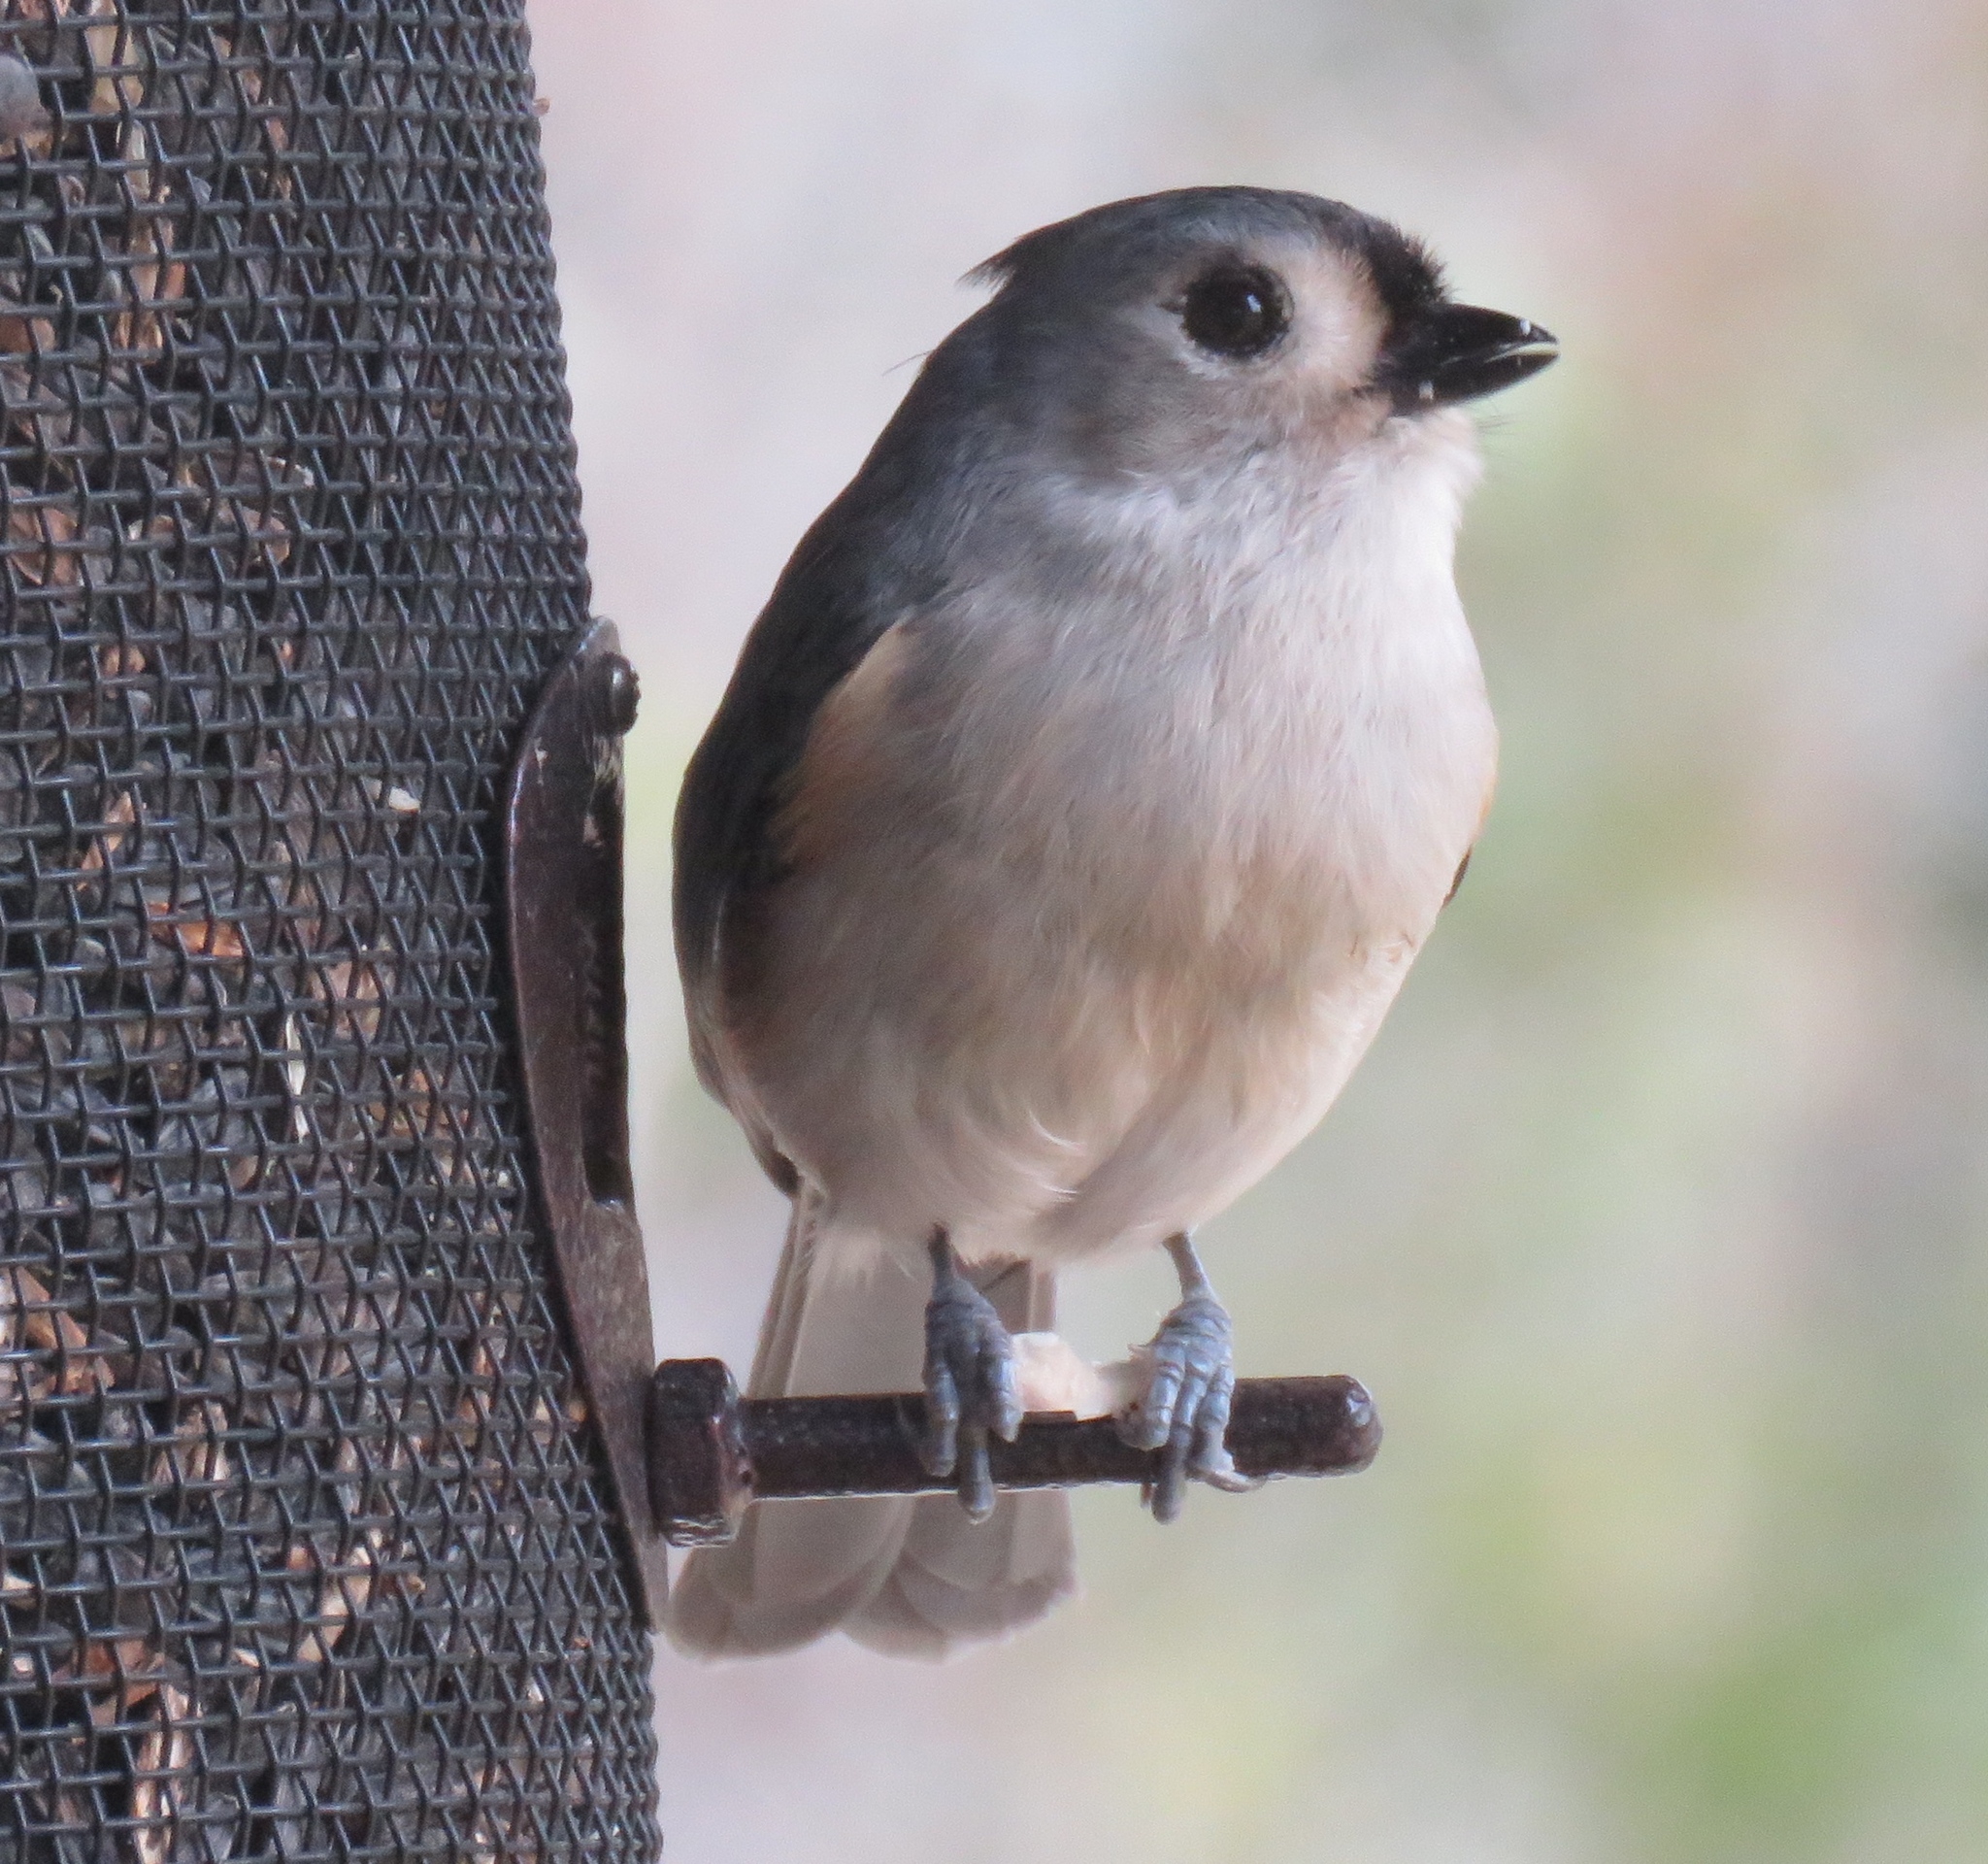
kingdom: Animalia
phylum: Chordata
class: Aves
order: Passeriformes
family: Paridae
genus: Baeolophus
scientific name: Baeolophus bicolor
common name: Tufted titmouse
